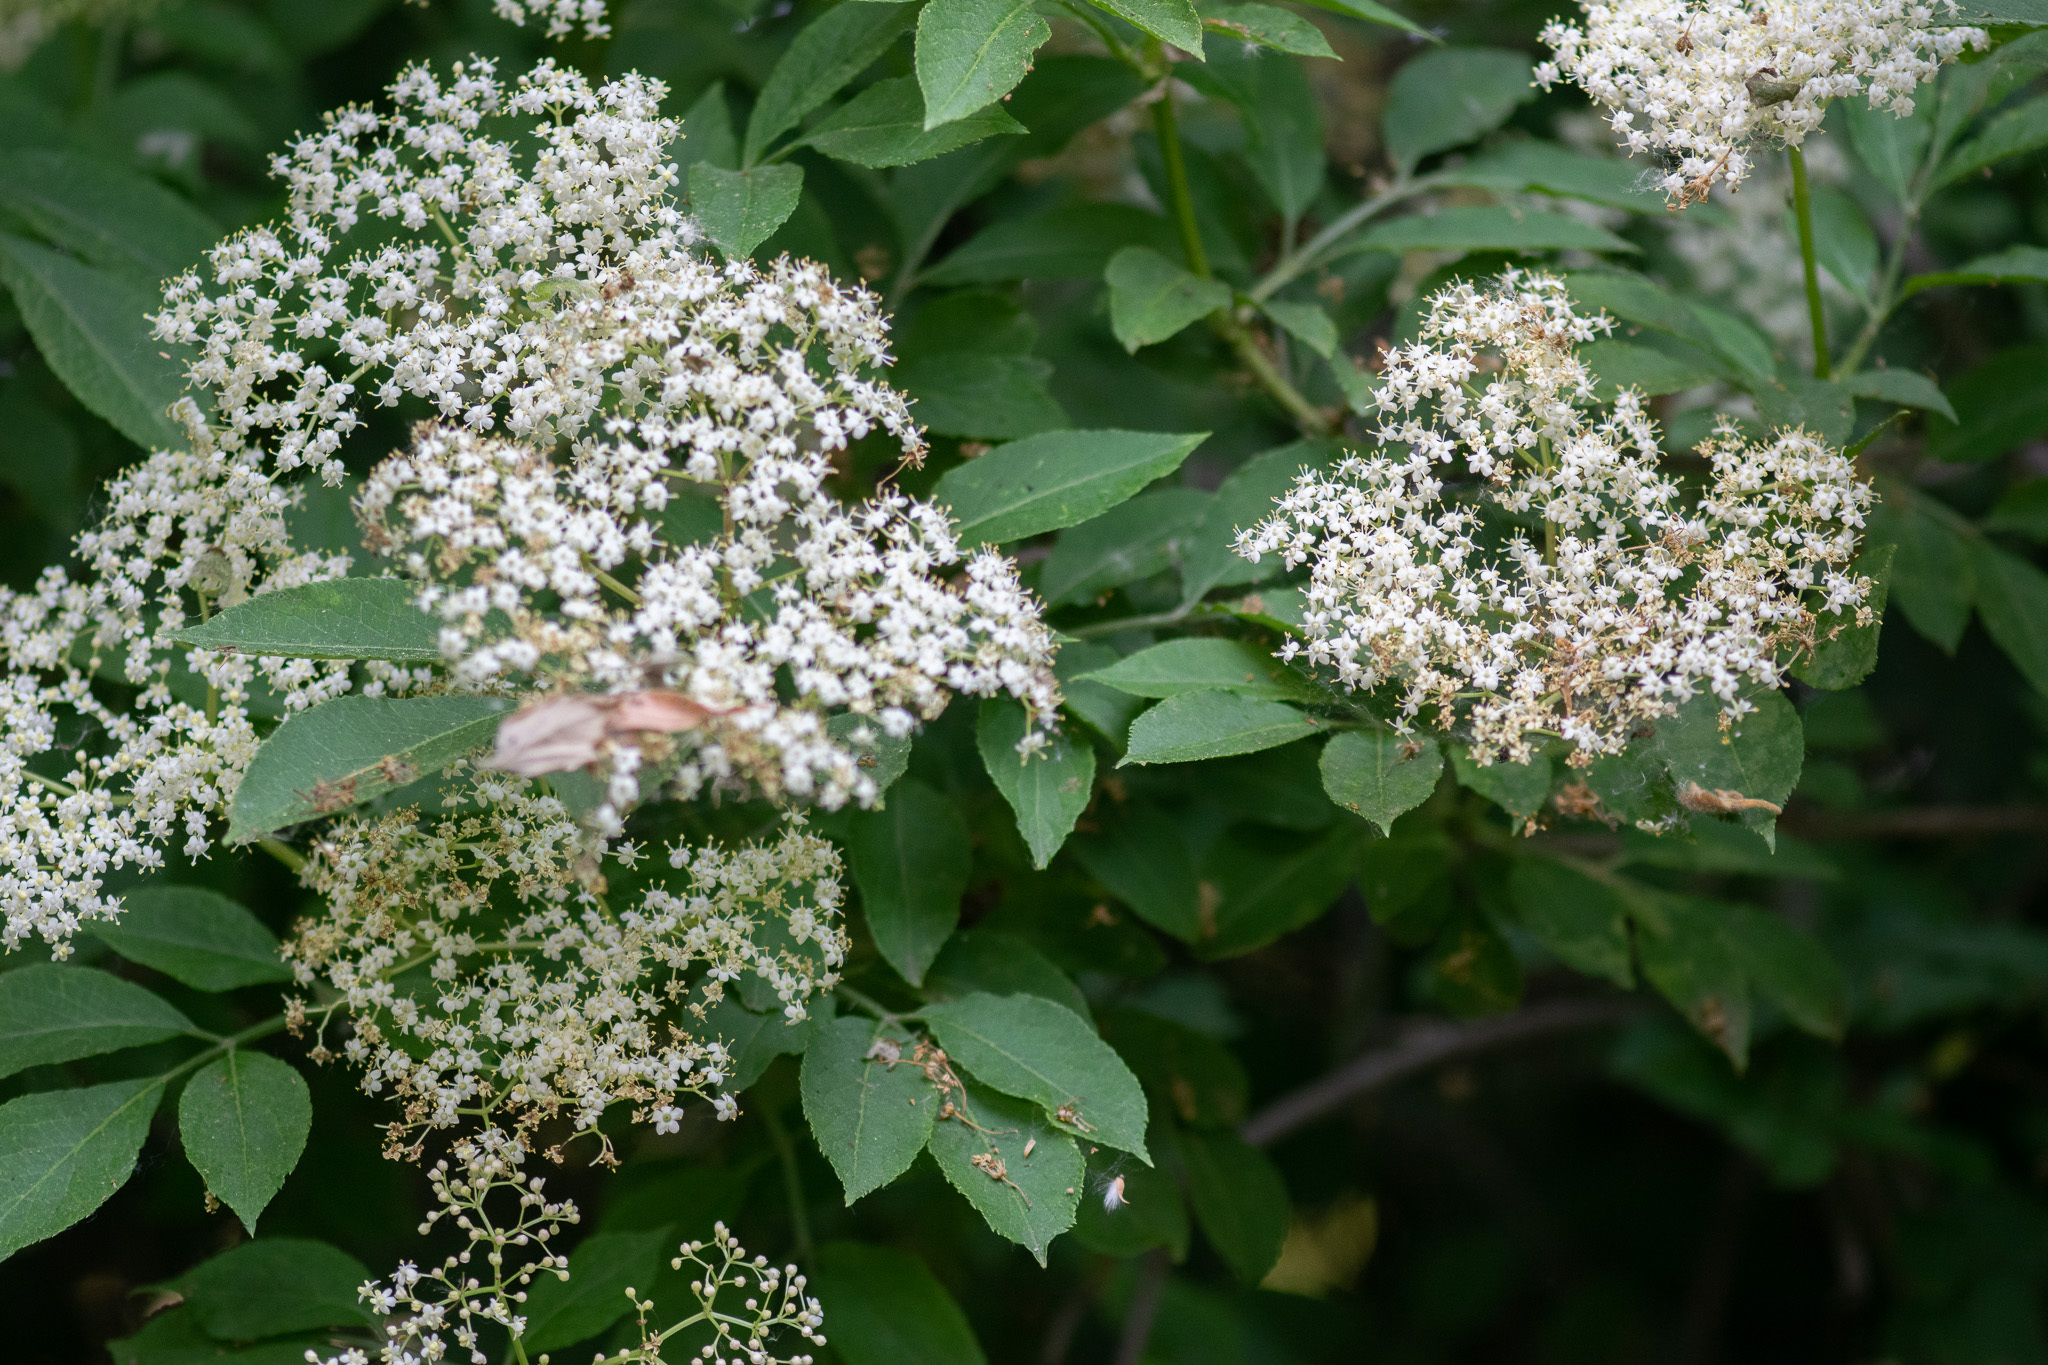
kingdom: Plantae
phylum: Tracheophyta
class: Magnoliopsida
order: Dipsacales
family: Viburnaceae
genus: Sambucus
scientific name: Sambucus nigra
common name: Elder
